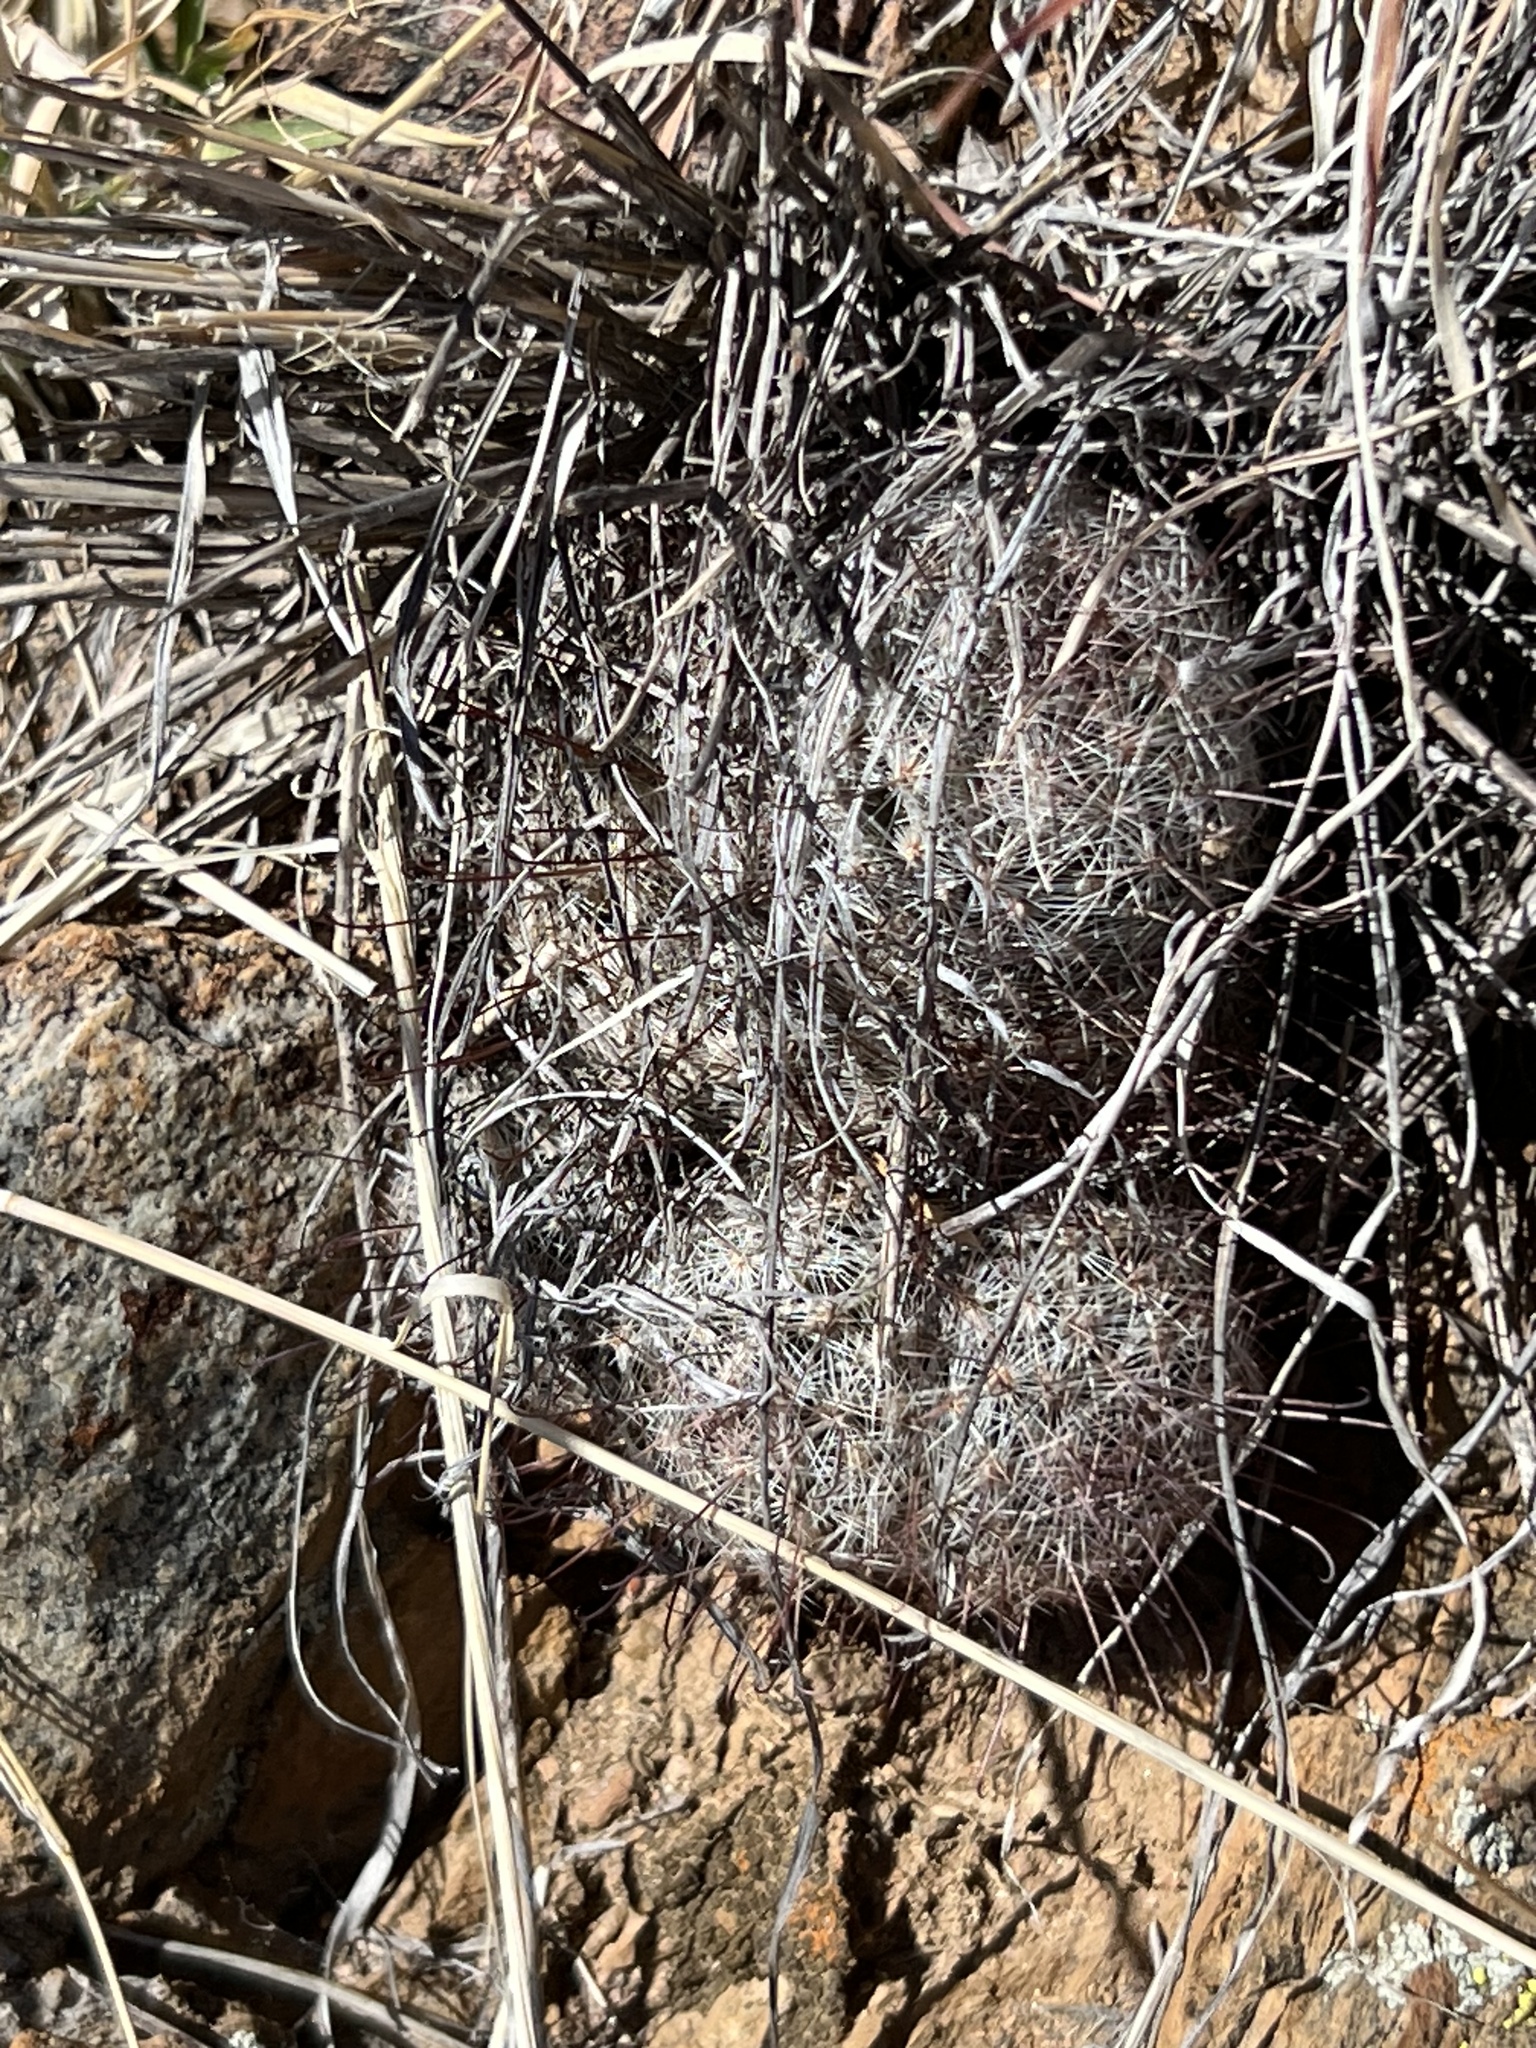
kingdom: Plantae
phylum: Tracheophyta
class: Magnoliopsida
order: Caryophyllales
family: Cactaceae
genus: Cochemiea
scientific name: Cochemiea grahamii
